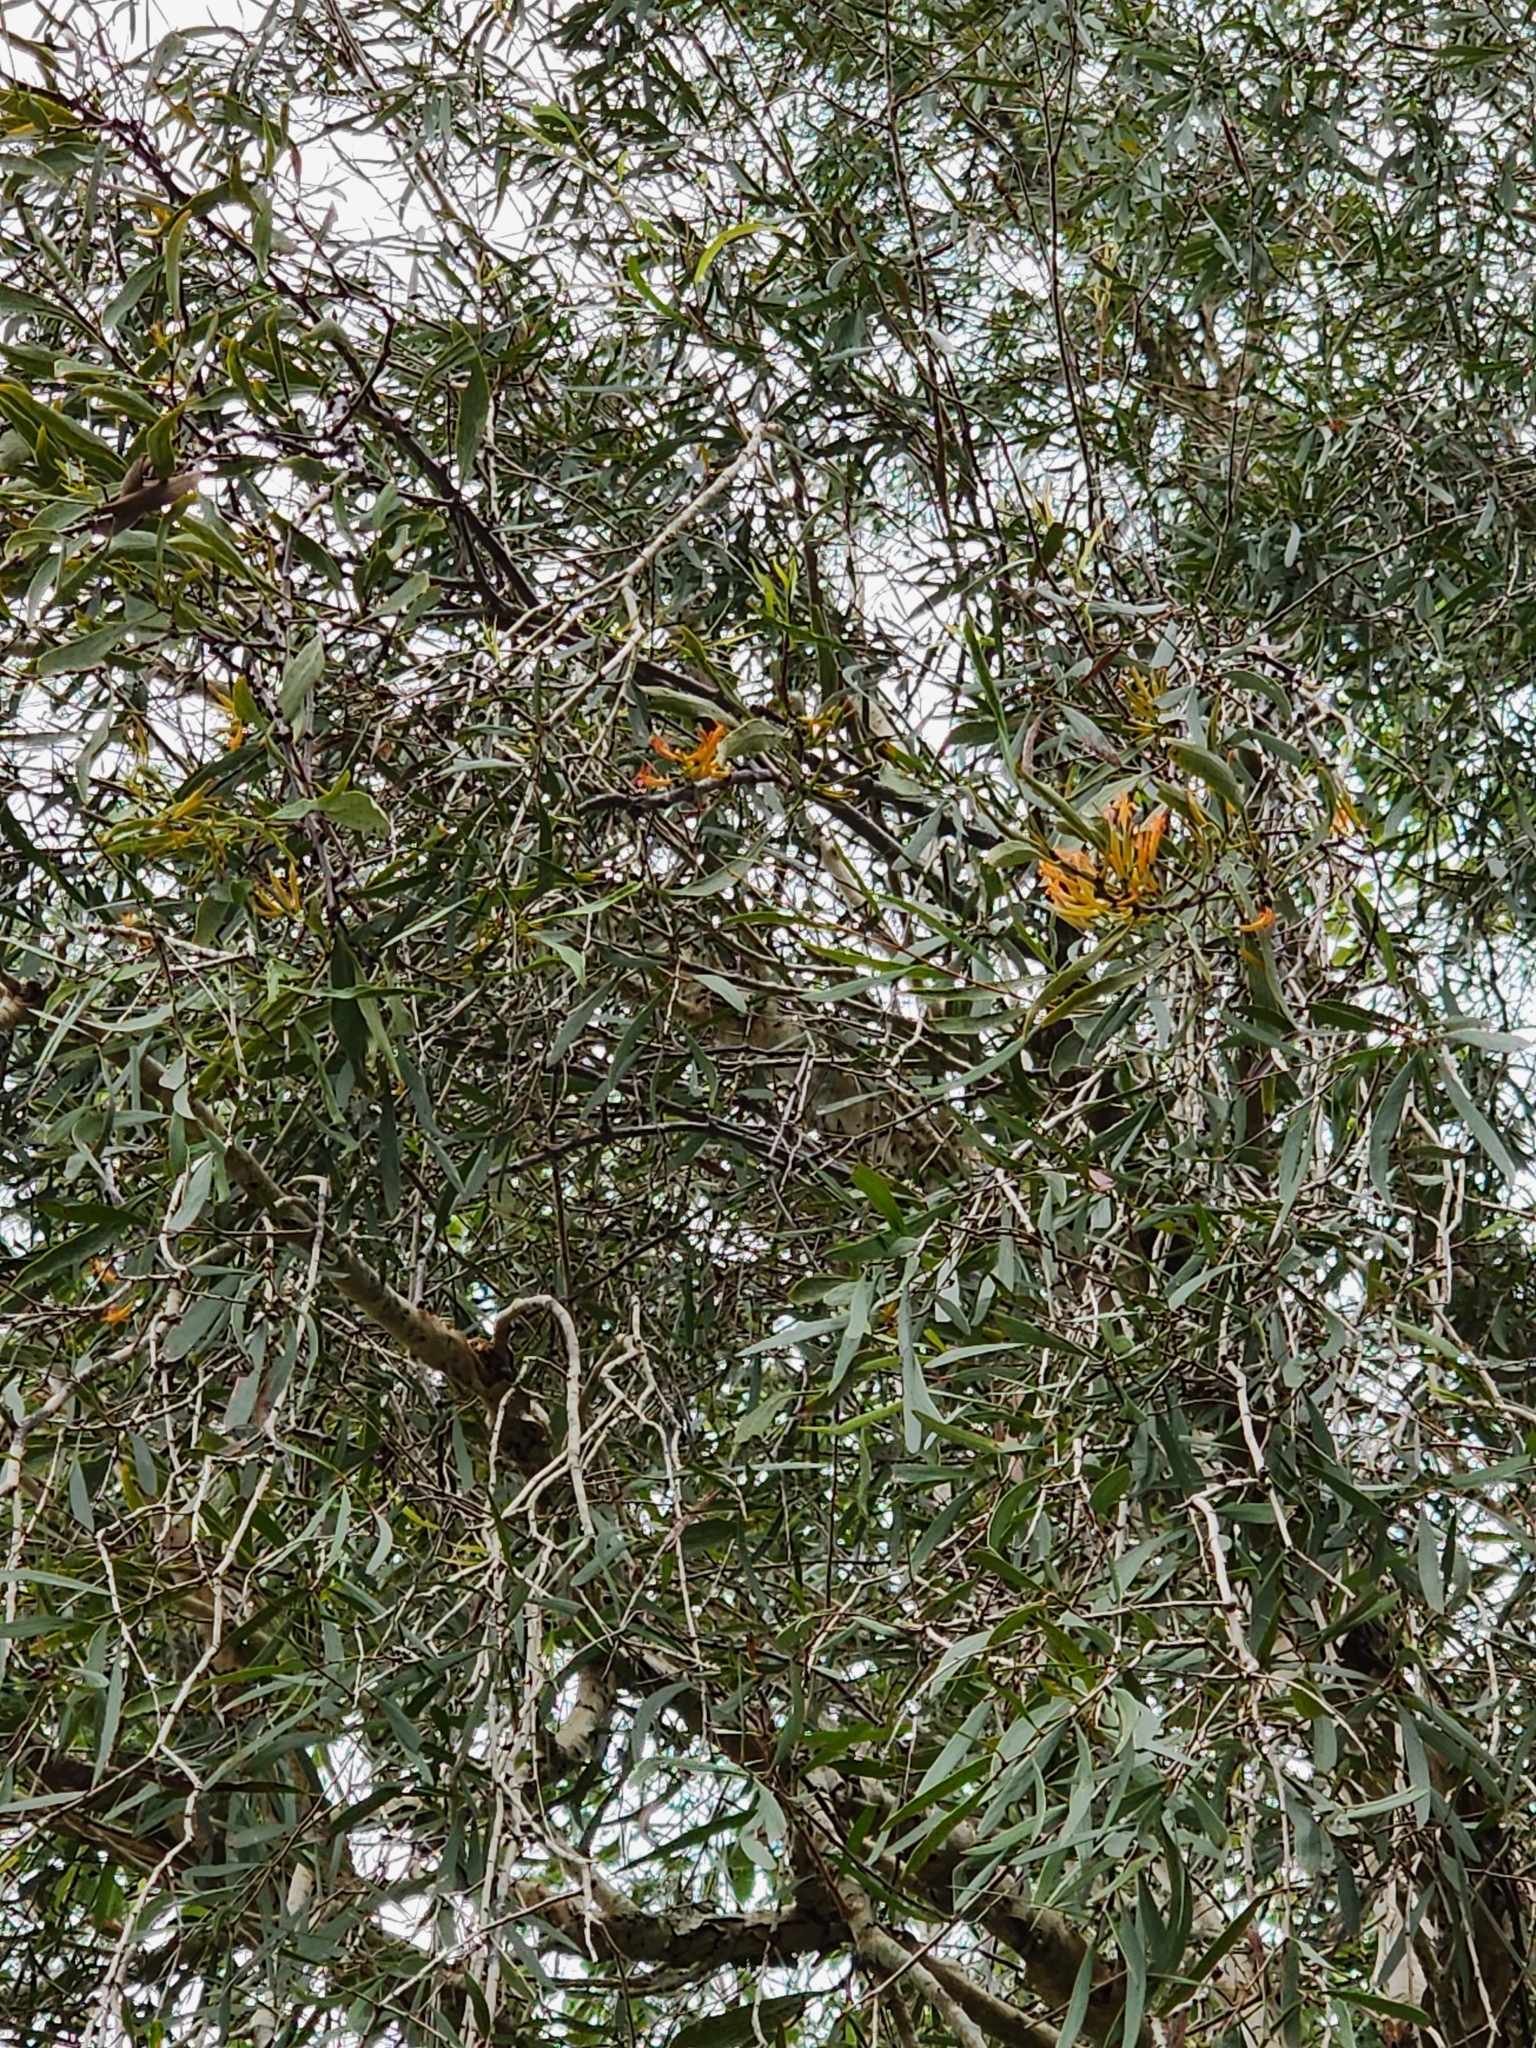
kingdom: Plantae
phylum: Tracheophyta
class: Magnoliopsida
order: Santalales
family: Loranthaceae
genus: Dendrophthoe
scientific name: Dendrophthoe glabrescens
